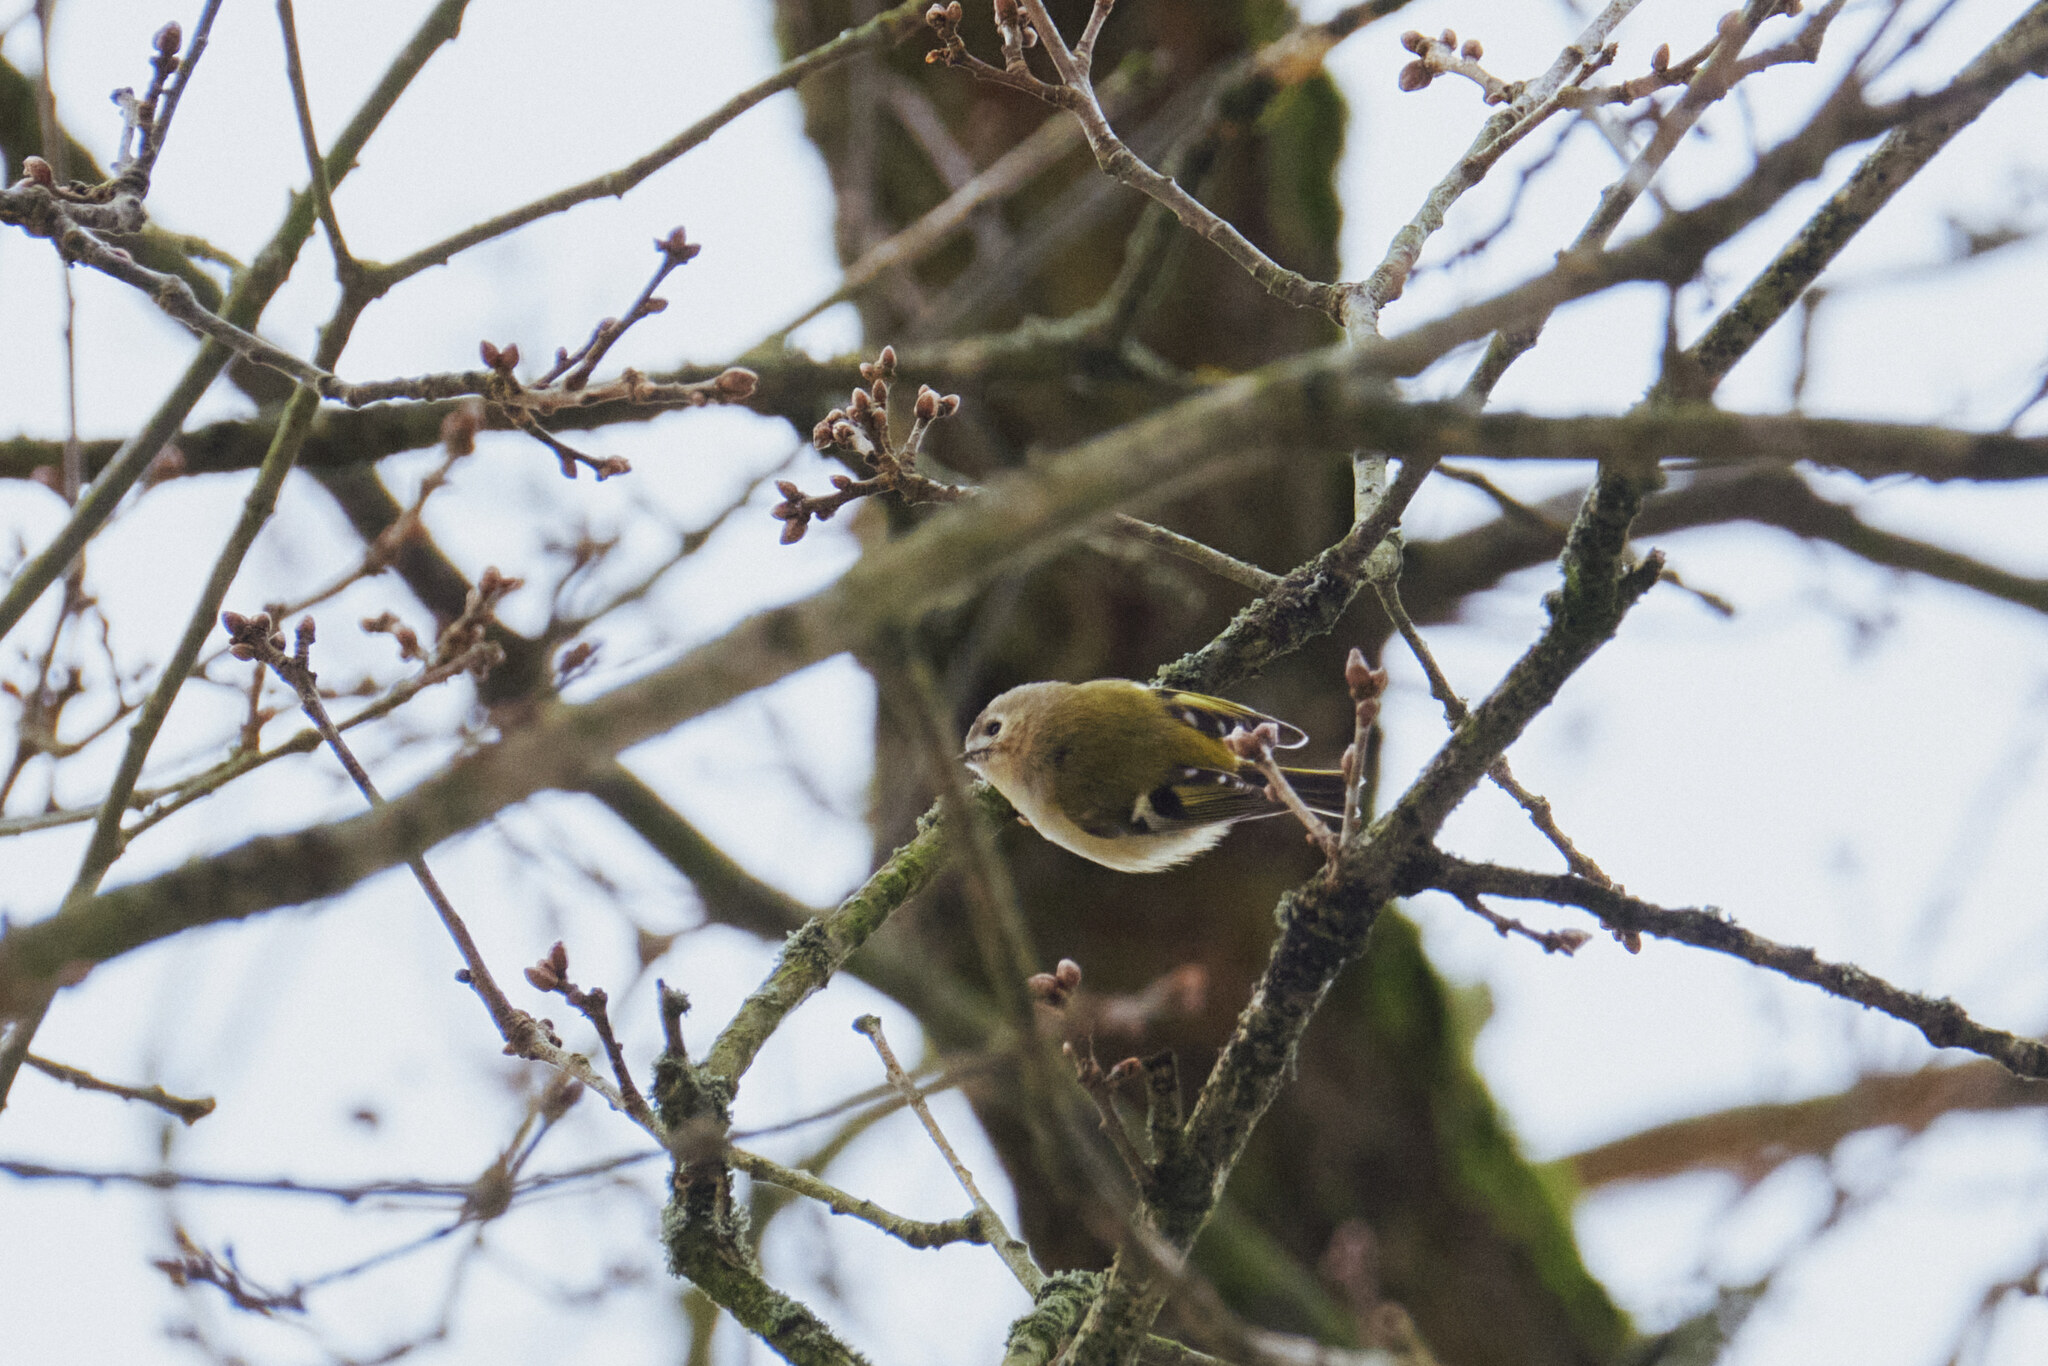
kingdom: Animalia
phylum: Chordata
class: Aves
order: Passeriformes
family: Regulidae
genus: Regulus
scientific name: Regulus regulus
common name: Goldcrest
